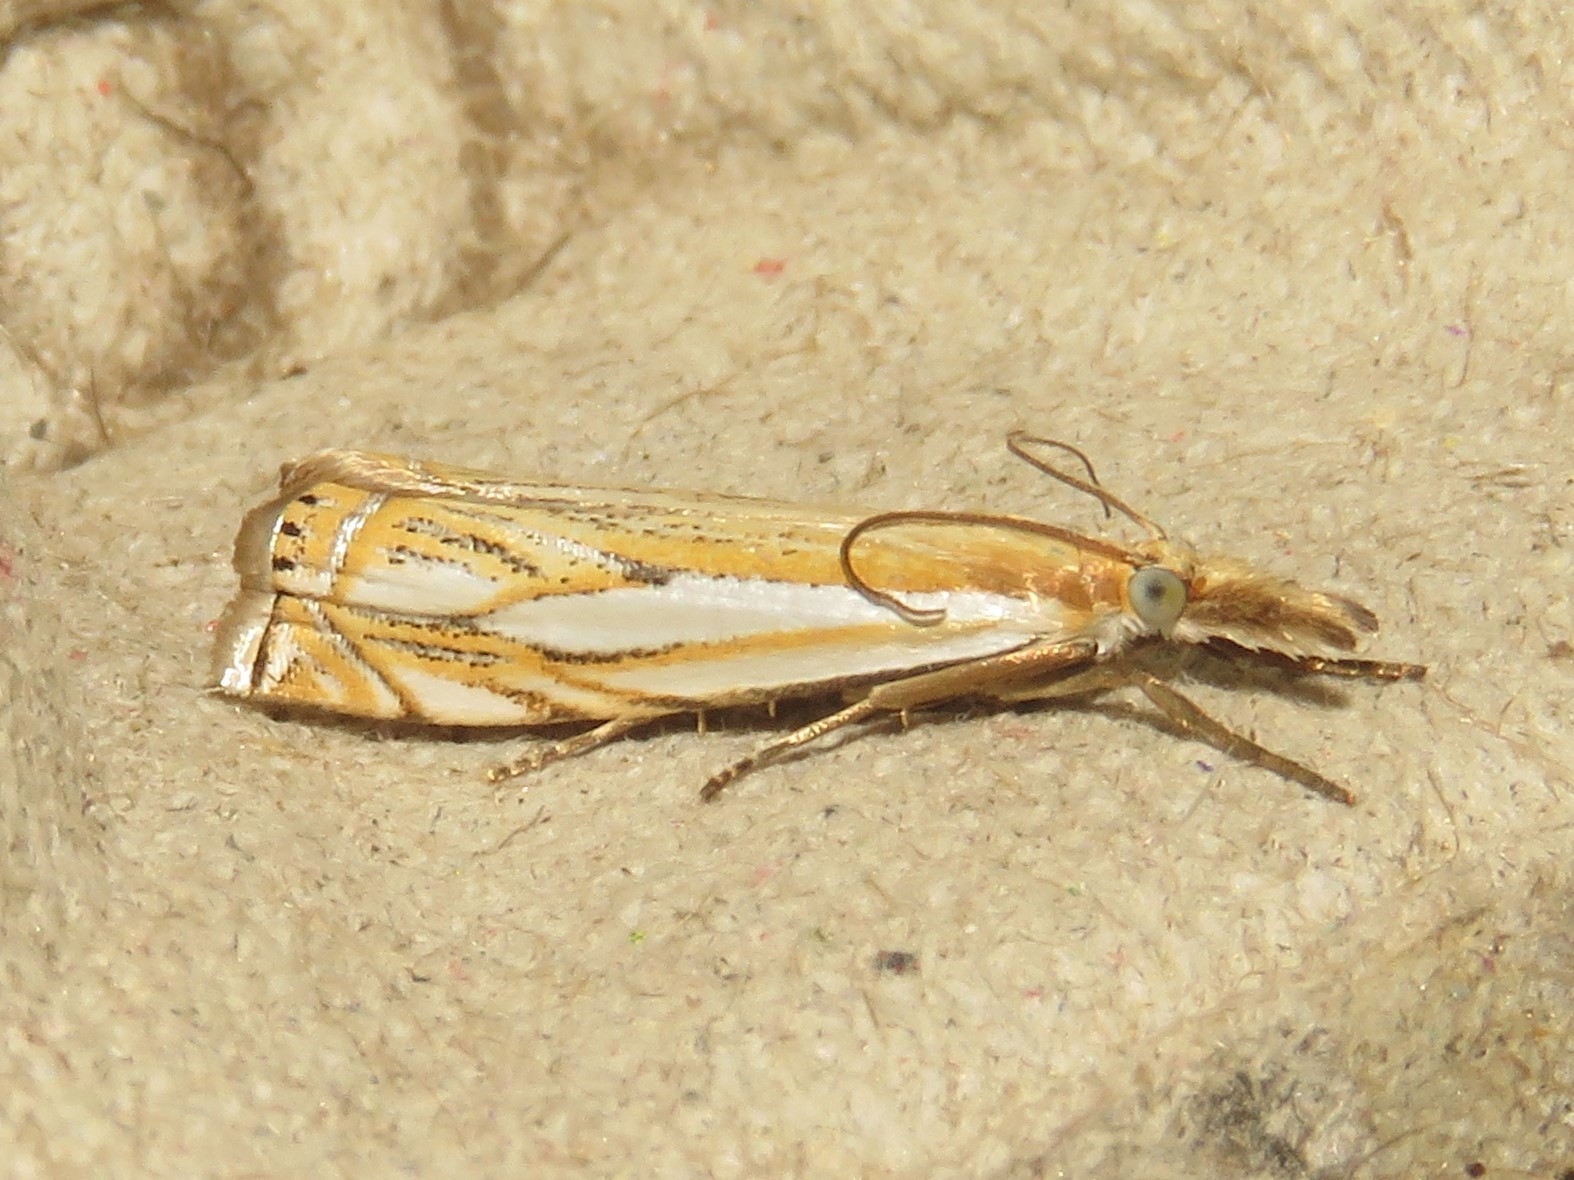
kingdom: Animalia
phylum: Arthropoda
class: Insecta
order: Lepidoptera
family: Crambidae
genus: Crambus
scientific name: Crambus saltuellus
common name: Pasture grass-veneer
